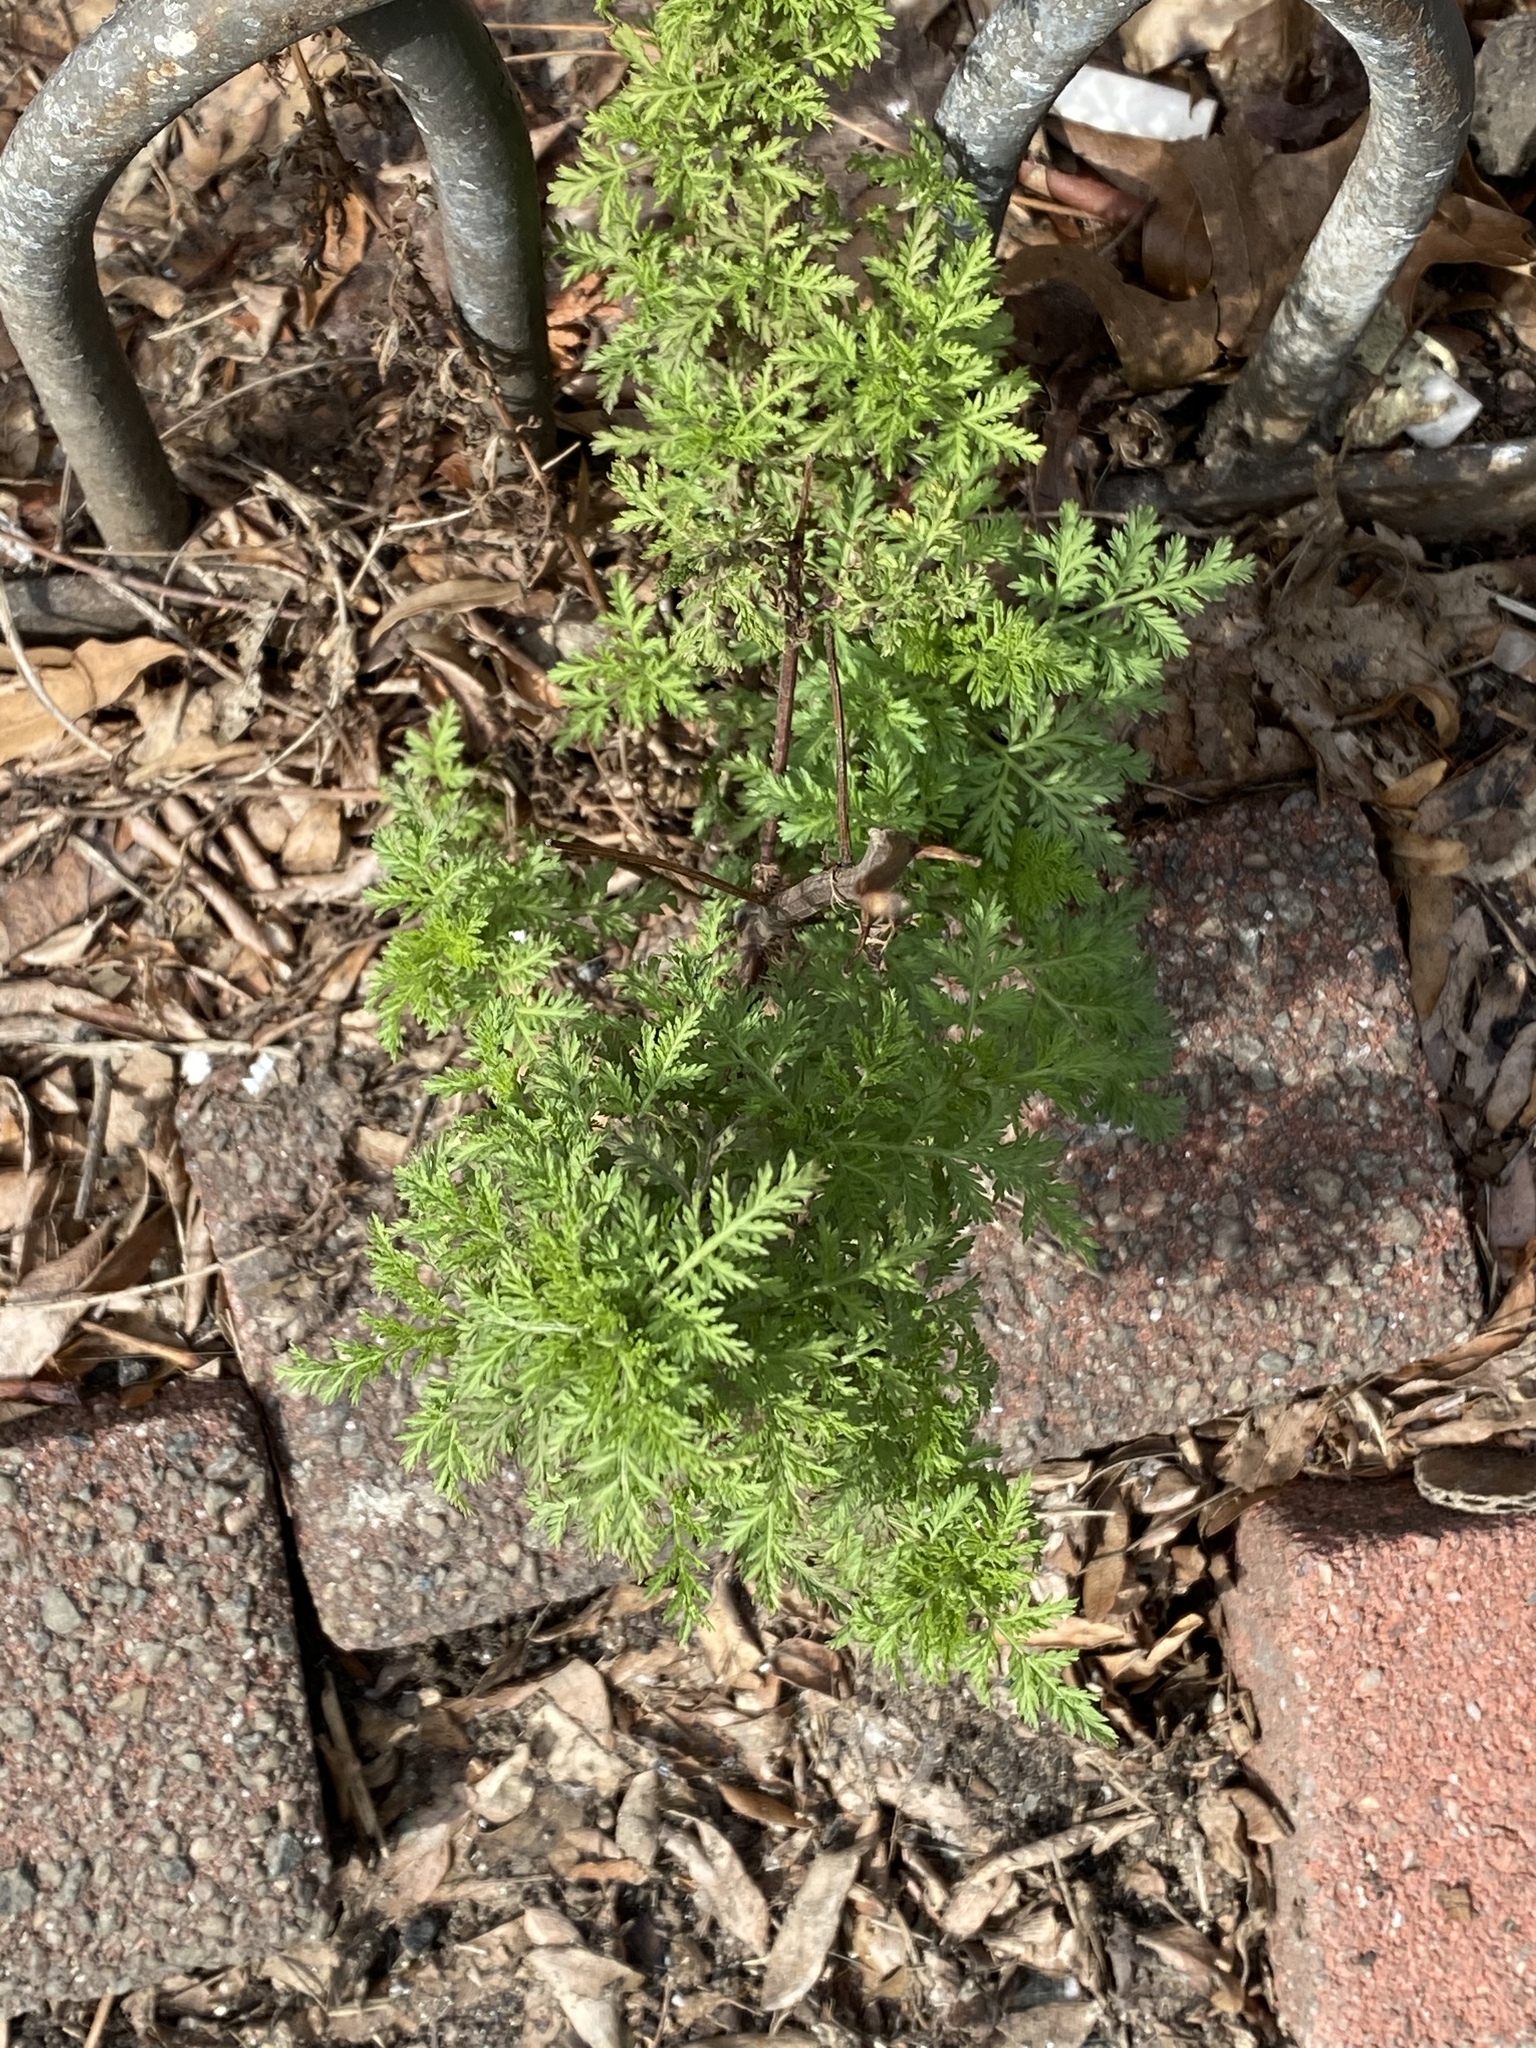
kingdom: Plantae
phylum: Tracheophyta
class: Magnoliopsida
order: Asterales
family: Asteraceae
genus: Artemisia
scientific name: Artemisia annua
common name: Sweet sagewort
